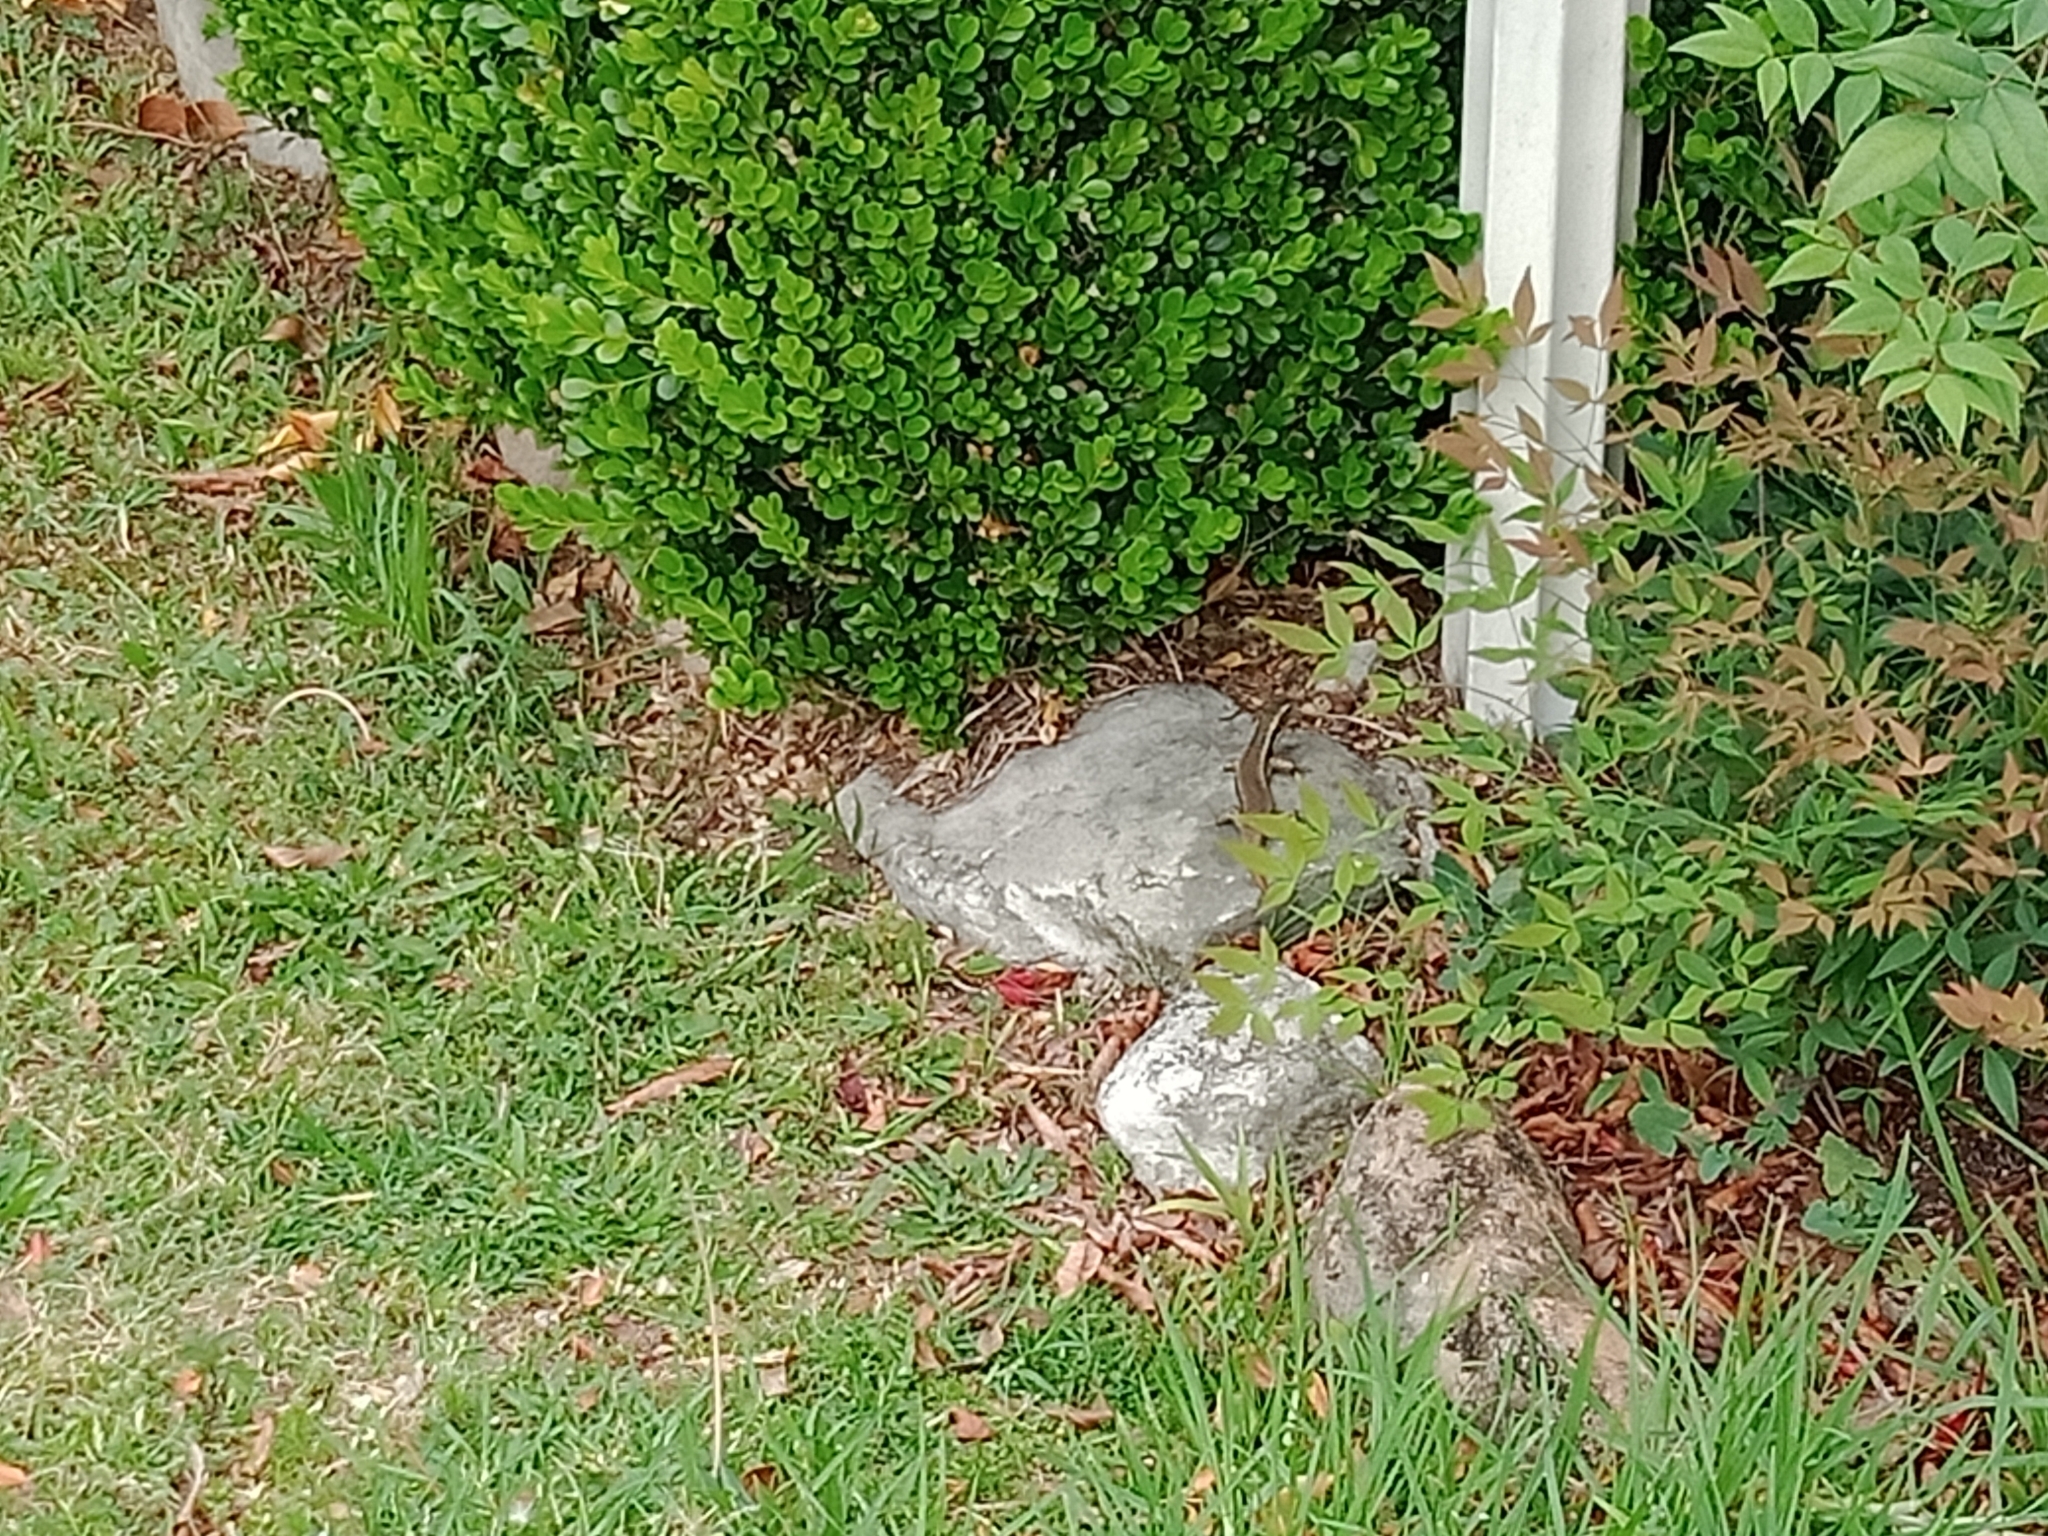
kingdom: Animalia
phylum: Chordata
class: Squamata
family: Scincidae
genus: Eulamprus
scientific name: Eulamprus quoyii
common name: Eastern water skink
